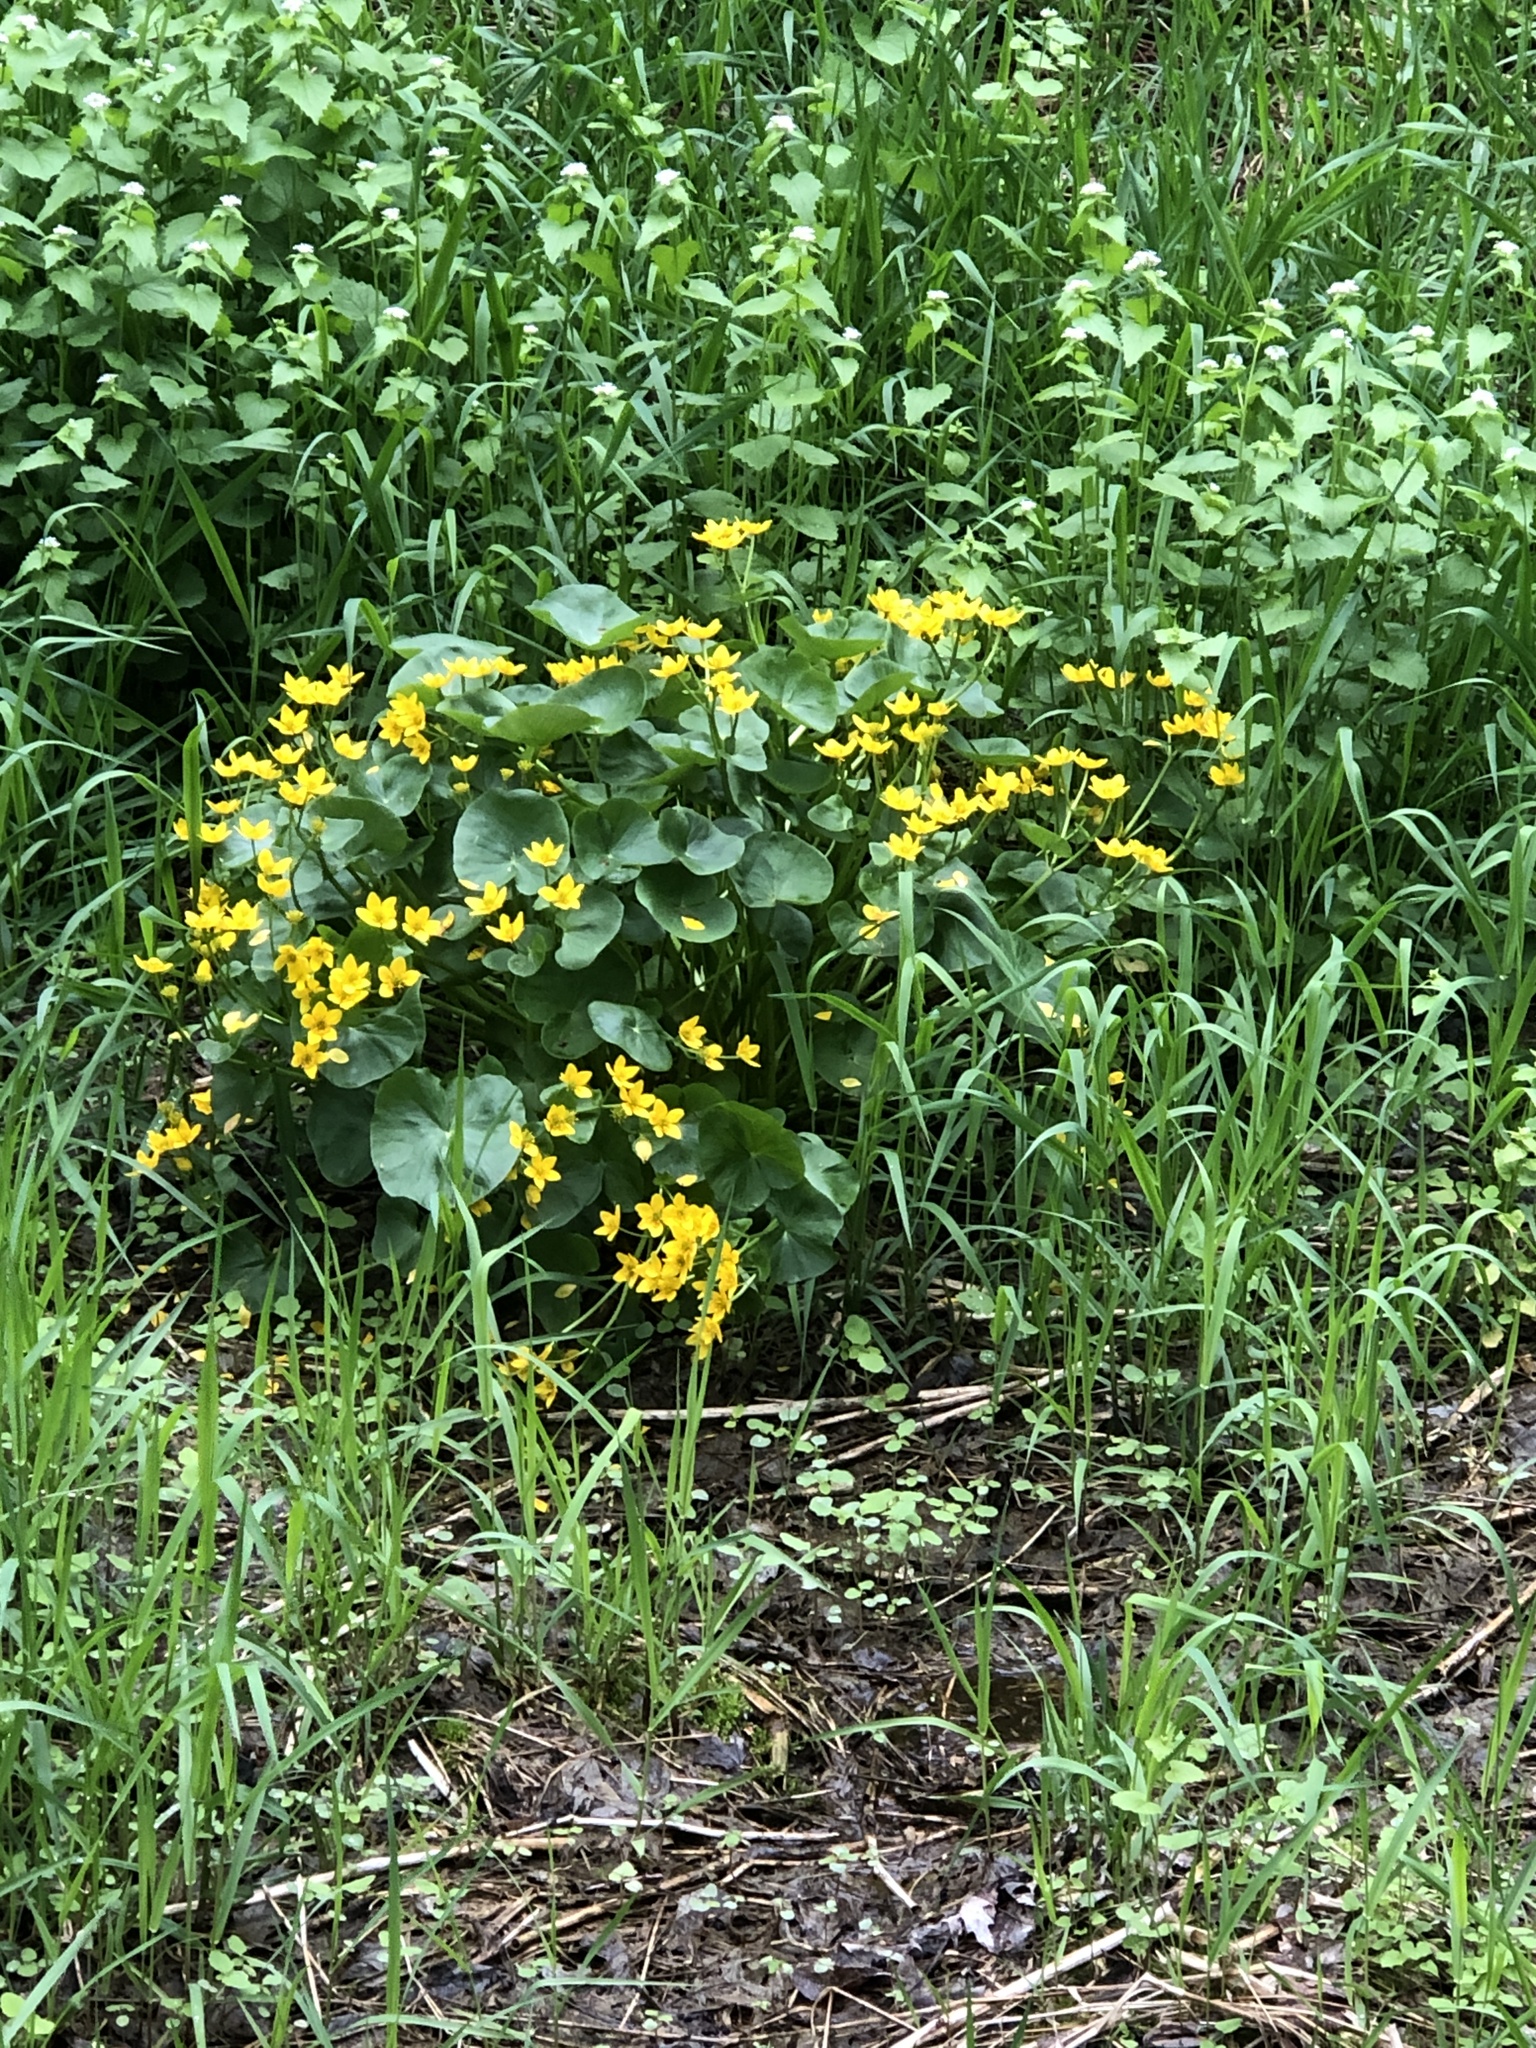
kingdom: Plantae
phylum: Tracheophyta
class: Magnoliopsida
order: Ranunculales
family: Ranunculaceae
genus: Caltha
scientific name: Caltha palustris
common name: Marsh marigold
